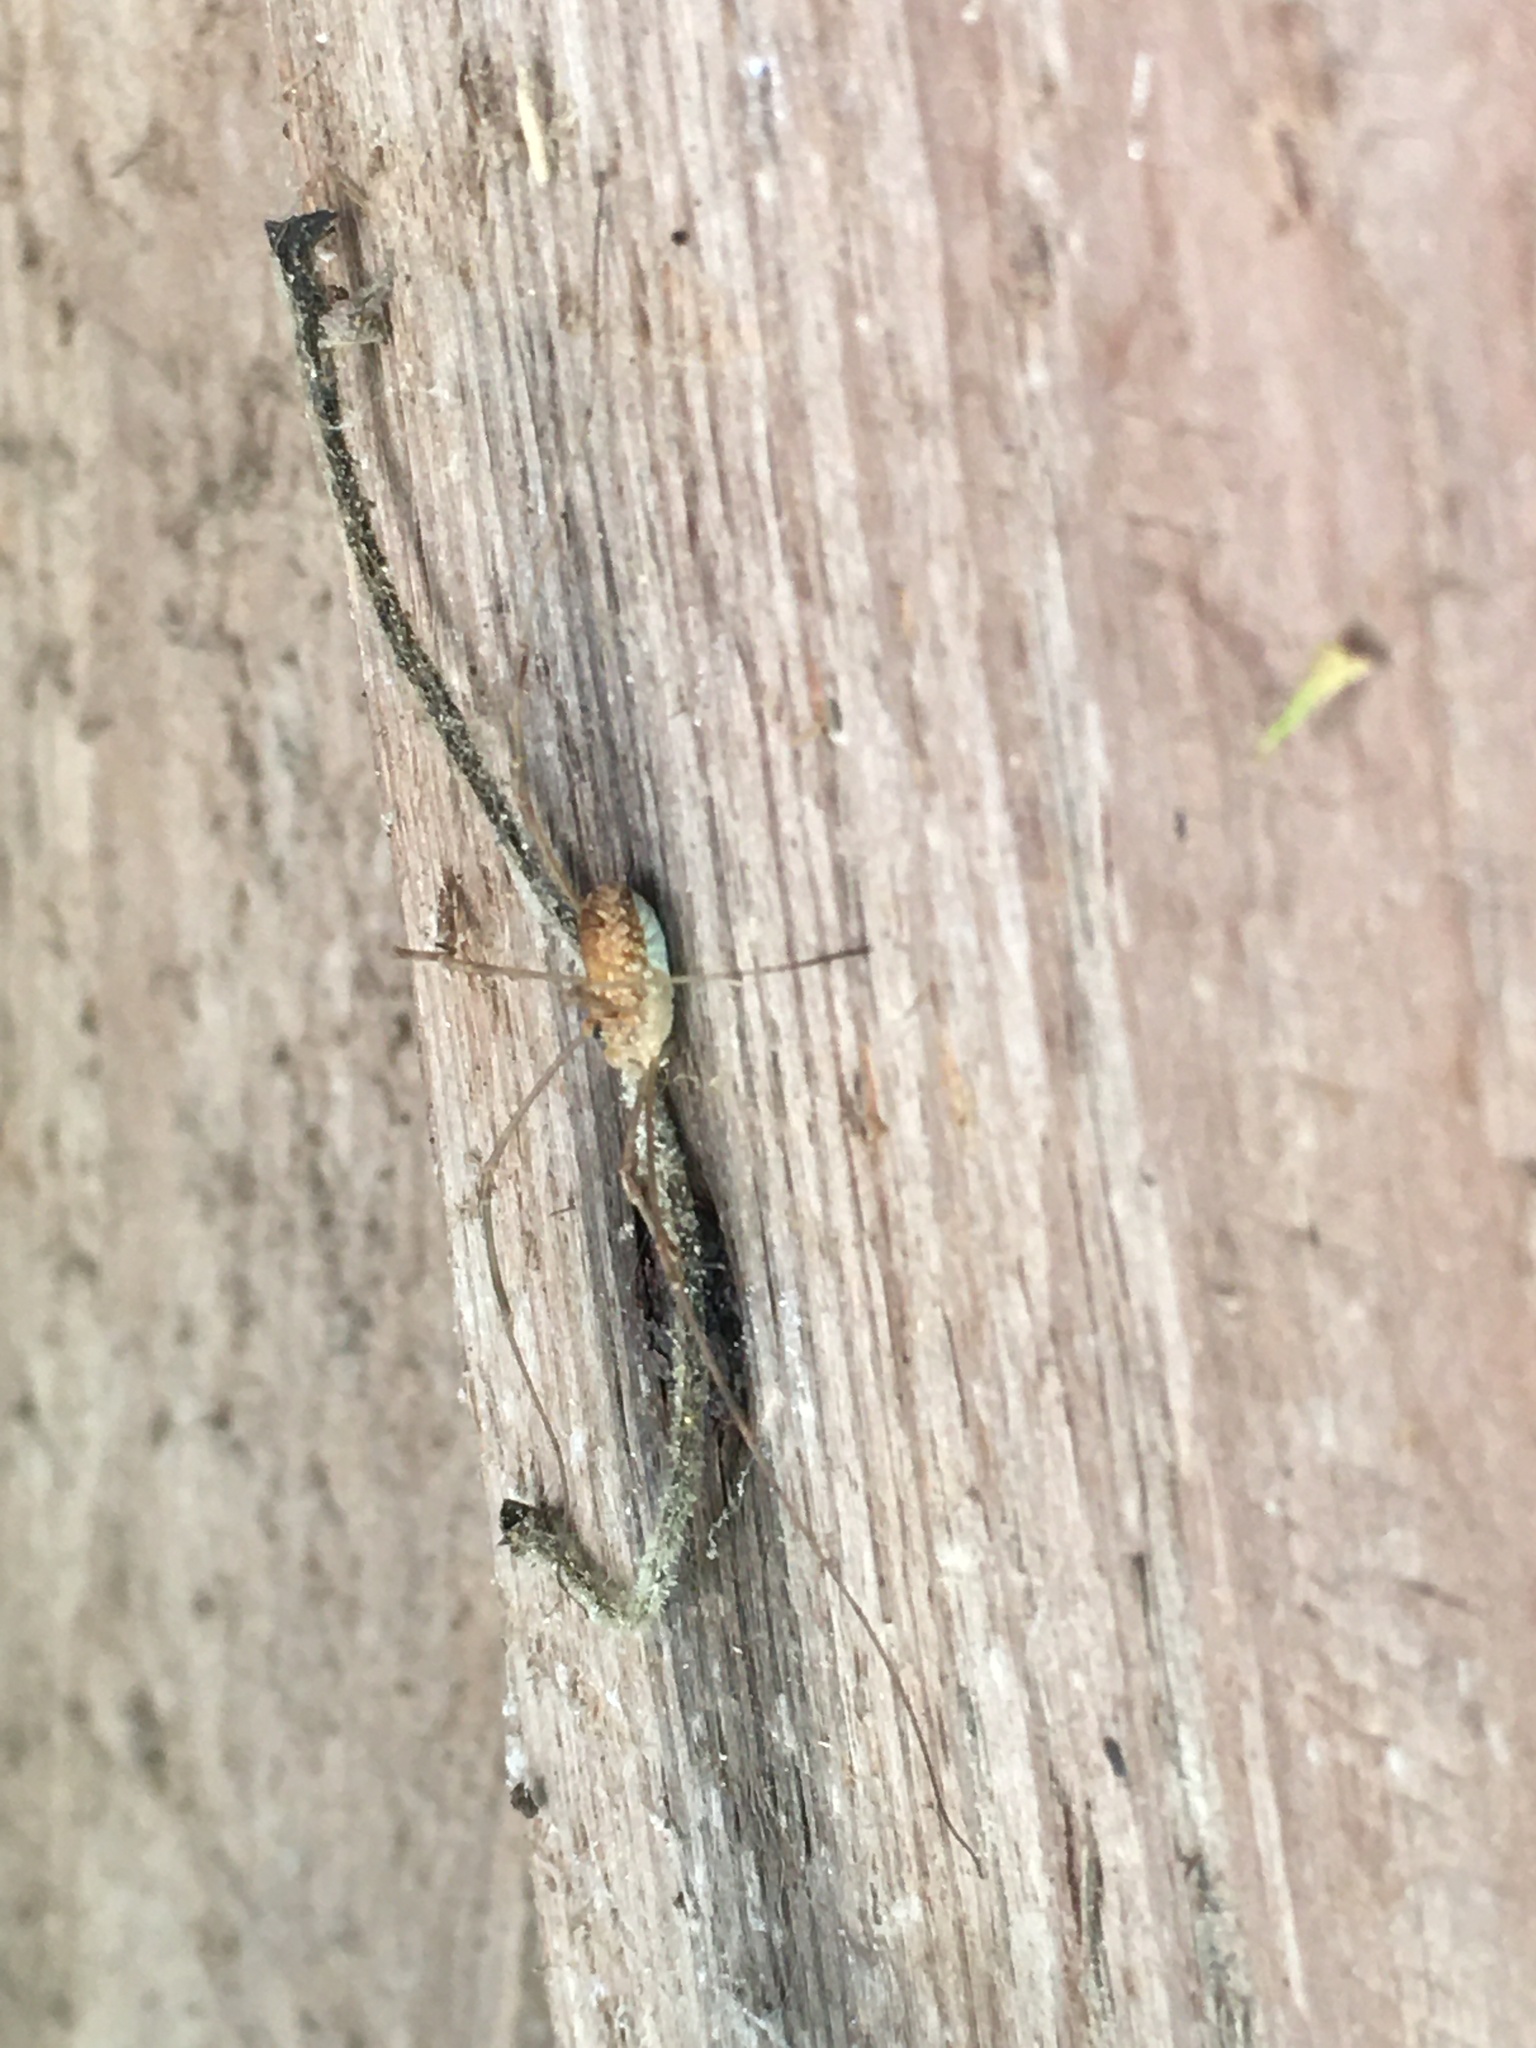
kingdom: Animalia
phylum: Arthropoda
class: Arachnida
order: Opiliones
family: Phalangiidae
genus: Rilaena
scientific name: Rilaena triangularis
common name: Spring harvestman
